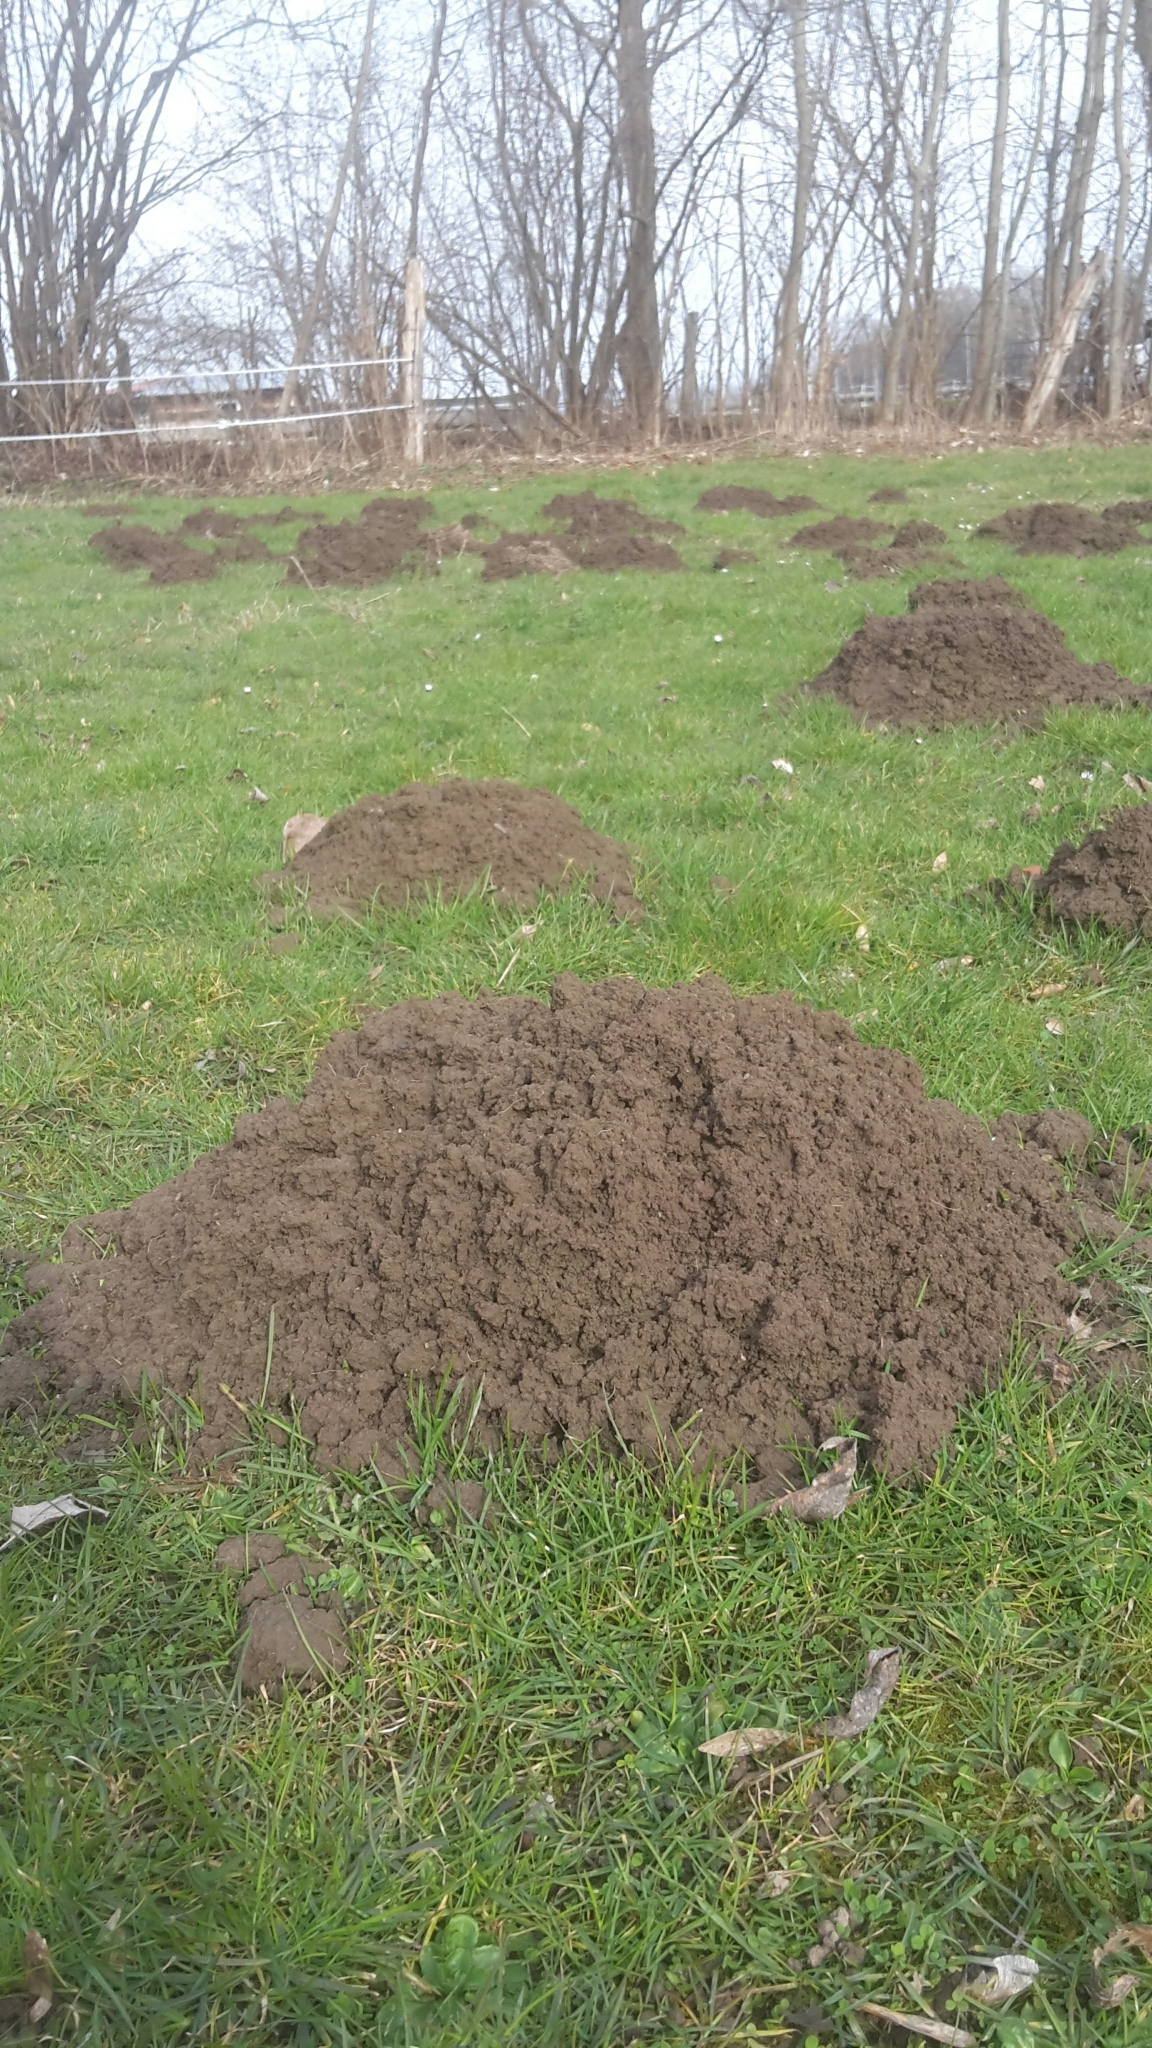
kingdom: Animalia
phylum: Chordata
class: Mammalia
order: Soricomorpha
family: Talpidae
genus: Talpa
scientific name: Talpa europaea
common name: European mole
